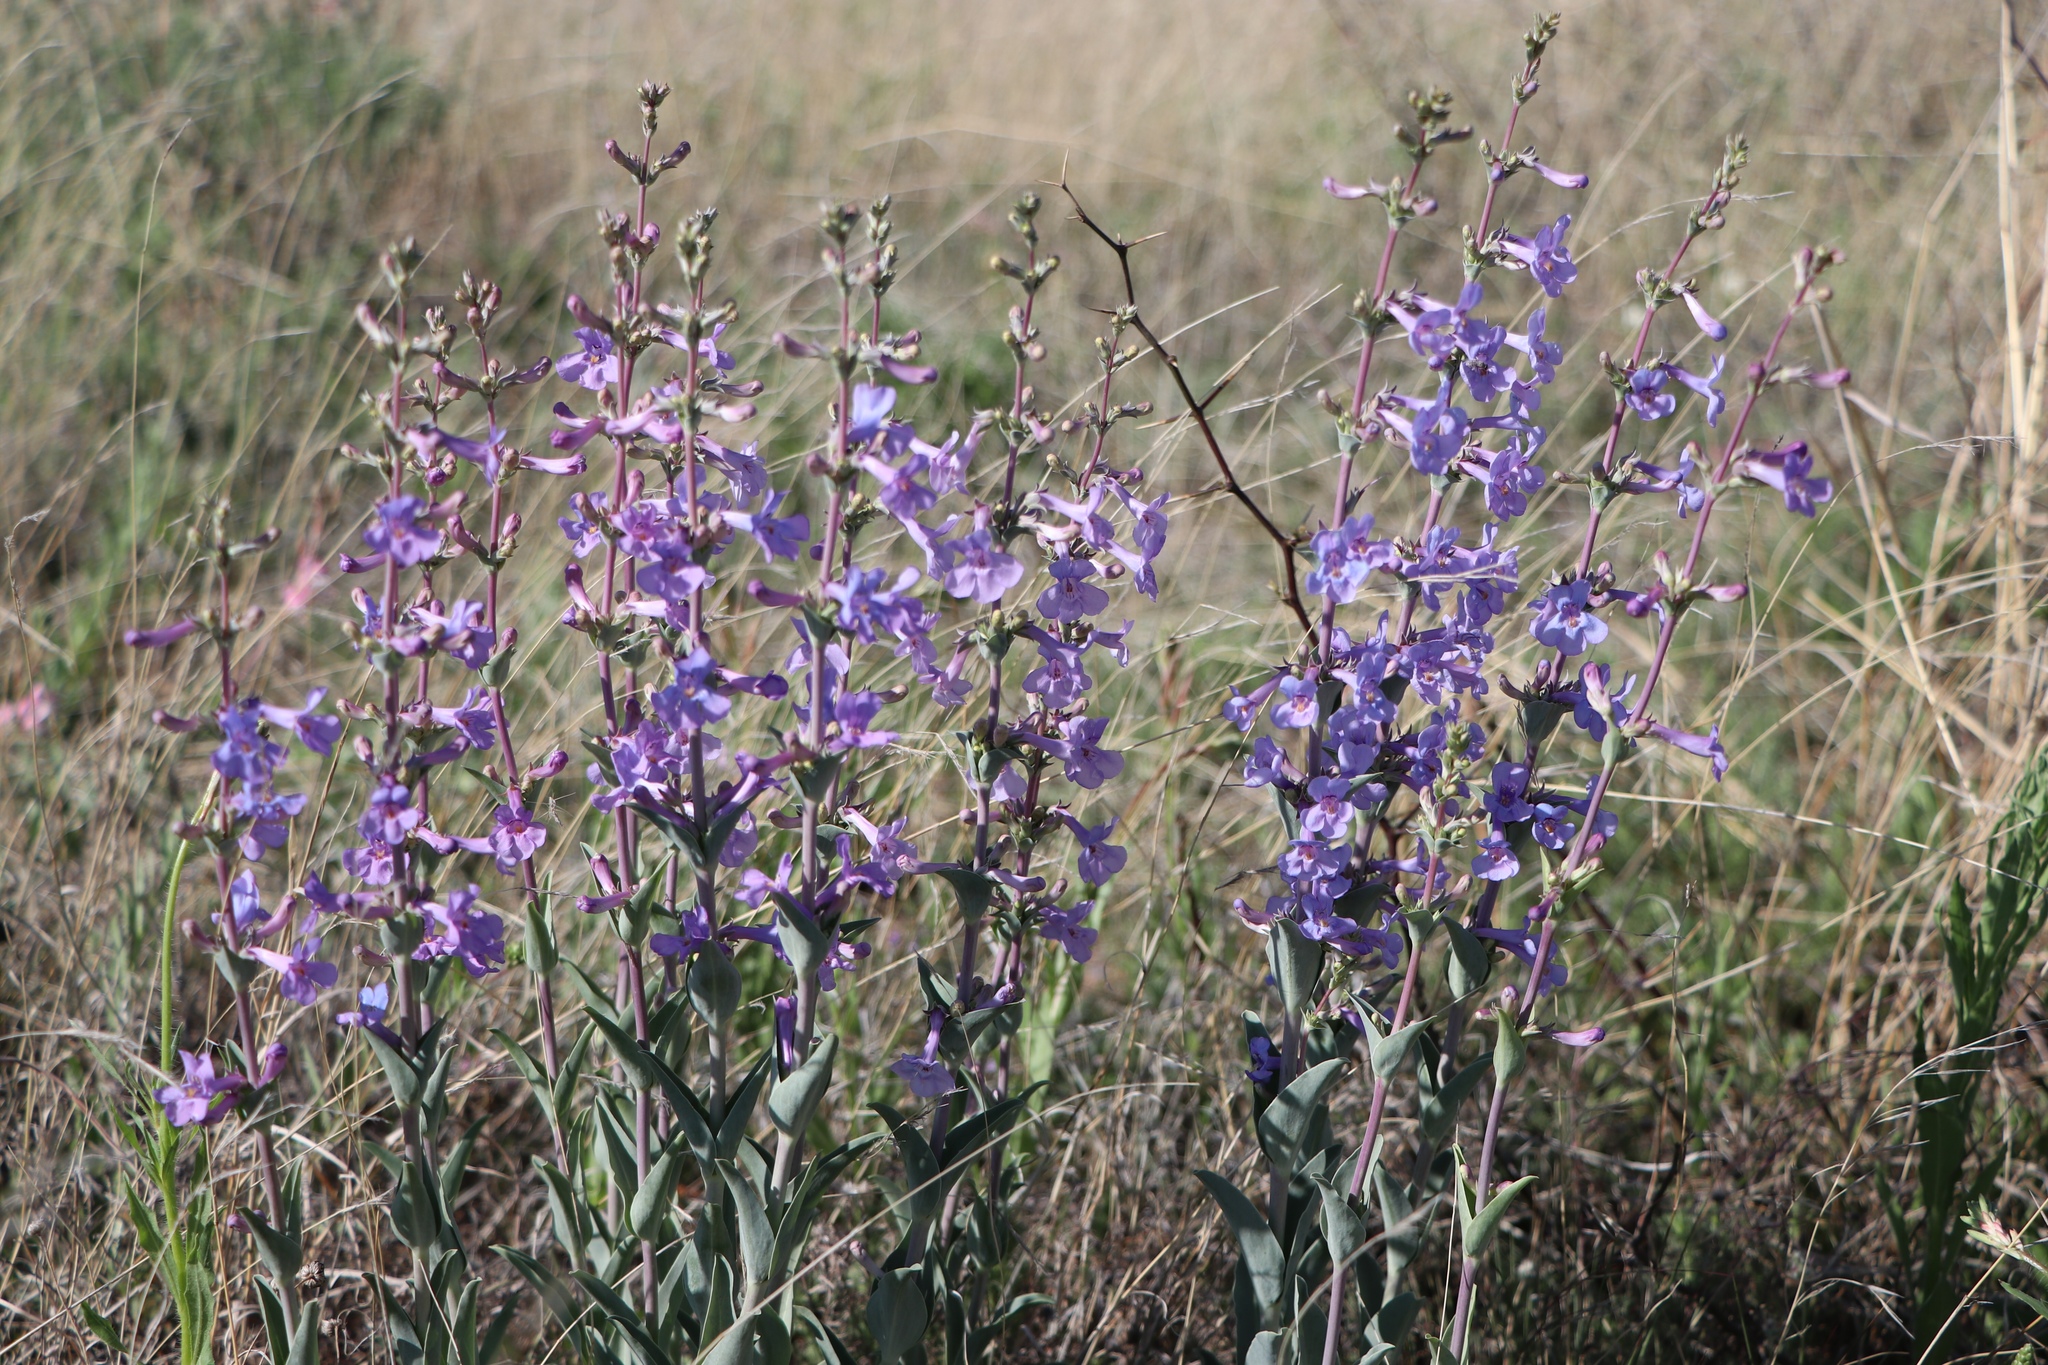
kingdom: Plantae
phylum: Tracheophyta
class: Magnoliopsida
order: Lamiales
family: Plantaginaceae
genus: Penstemon
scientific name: Penstemon fendleri
